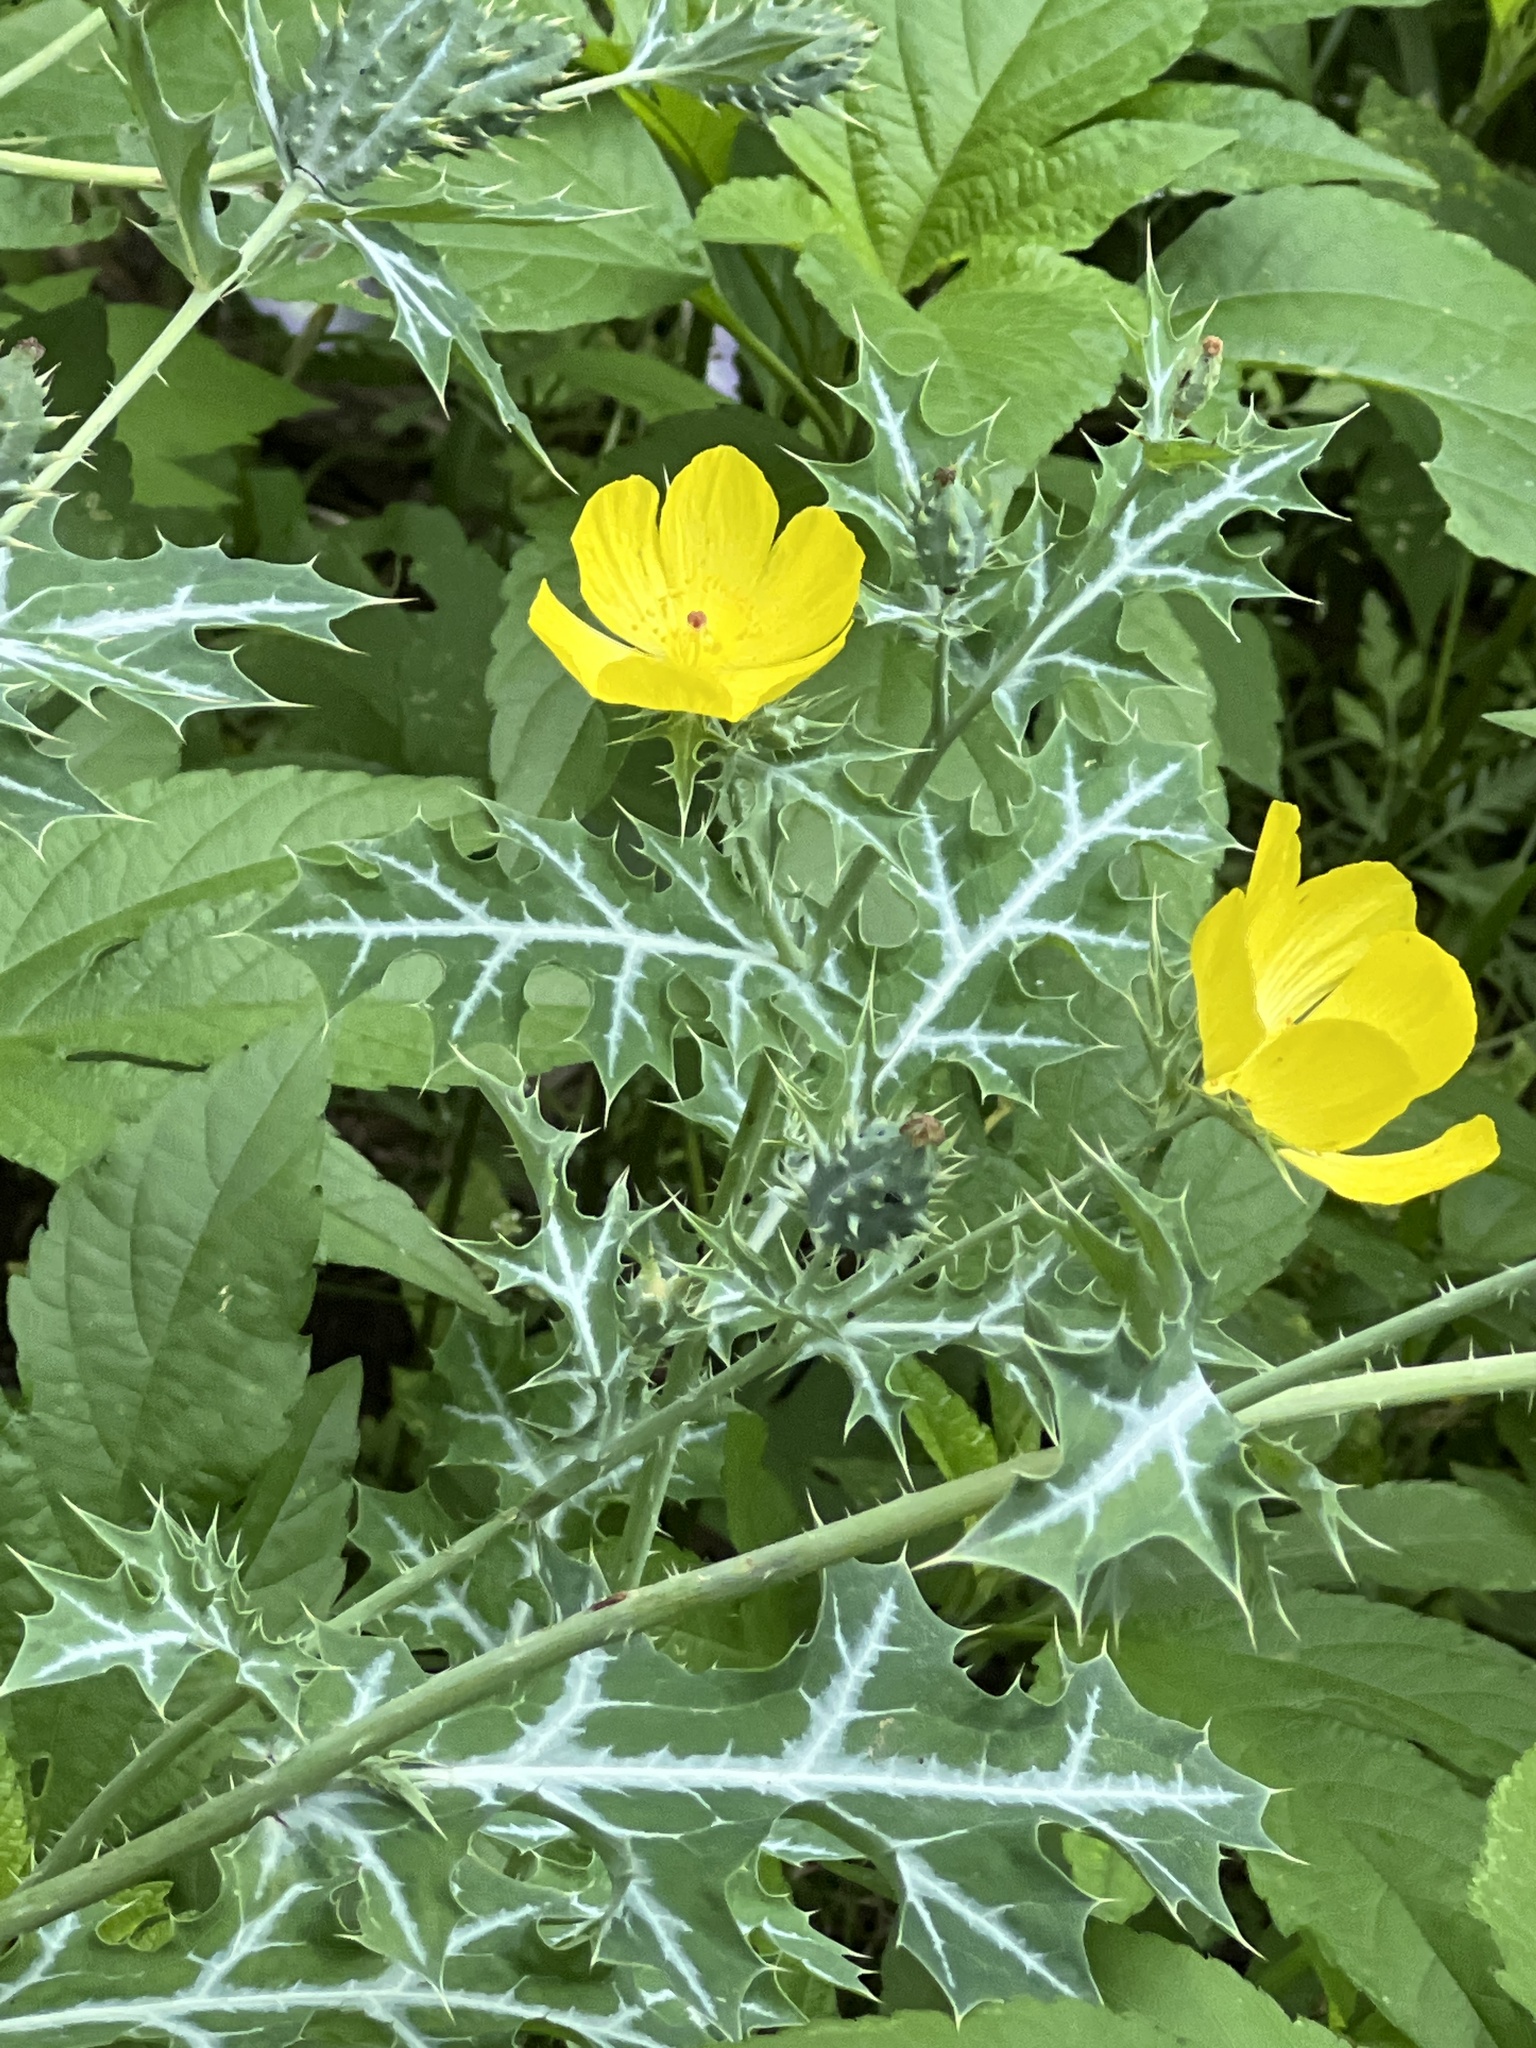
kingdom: Plantae
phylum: Tracheophyta
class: Magnoliopsida
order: Ranunculales
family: Papaveraceae
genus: Argemone
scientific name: Argemone mexicana
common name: Mexican poppy
